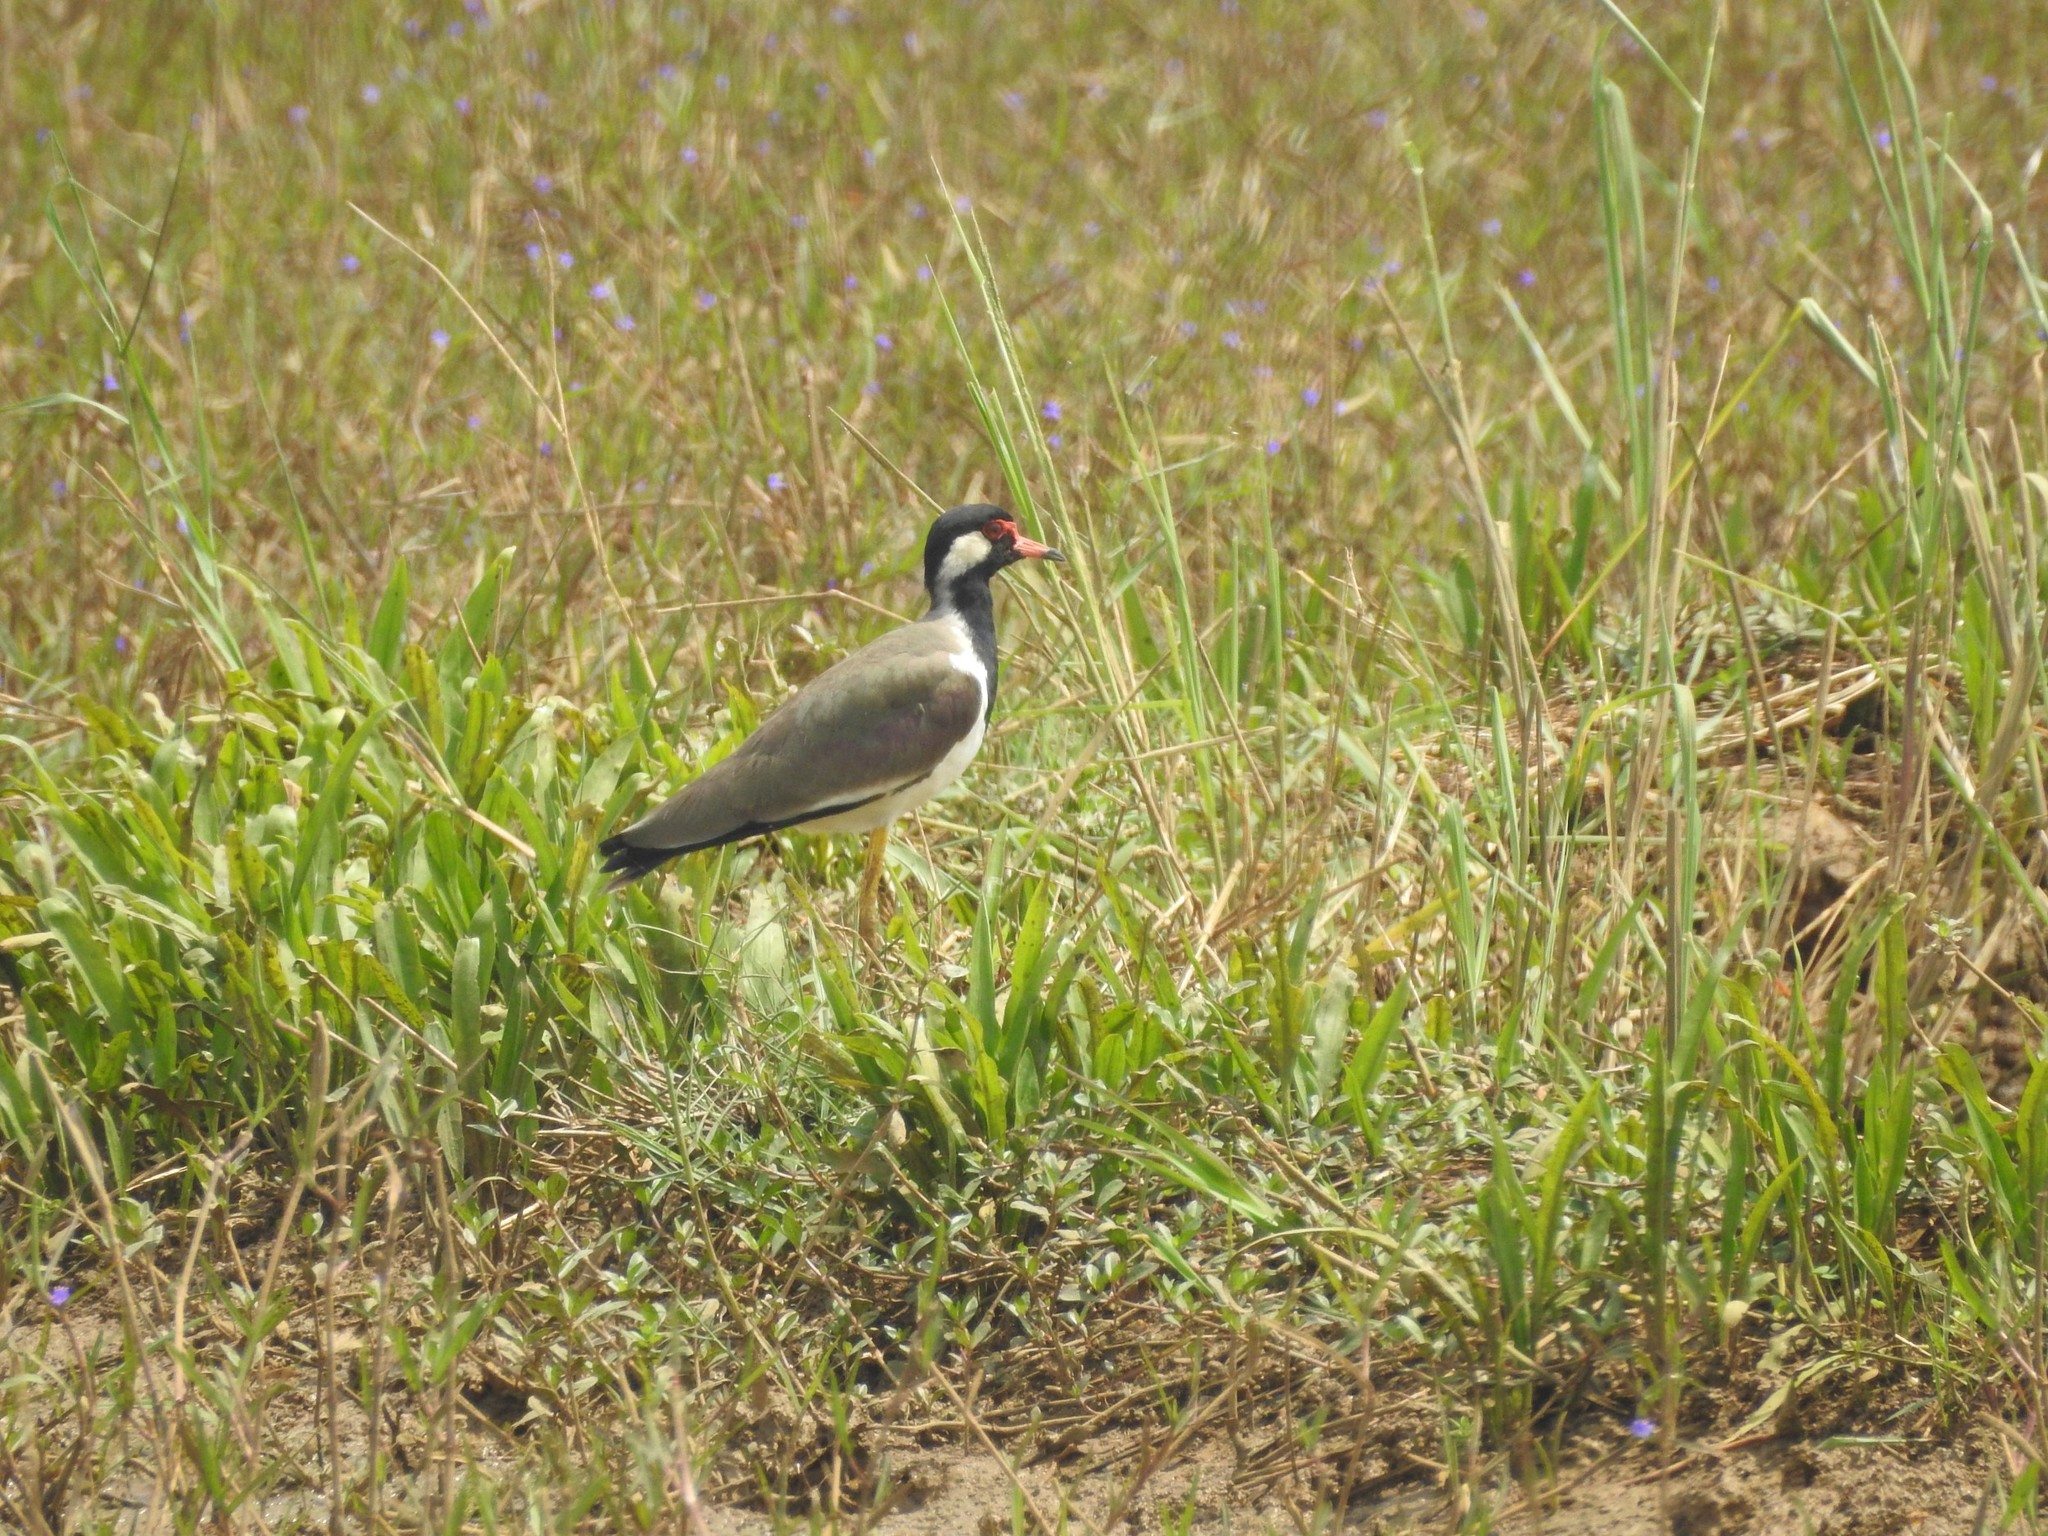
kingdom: Animalia
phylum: Chordata
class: Aves
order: Charadriiformes
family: Charadriidae
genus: Vanellus
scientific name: Vanellus indicus
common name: Red-wattled lapwing
